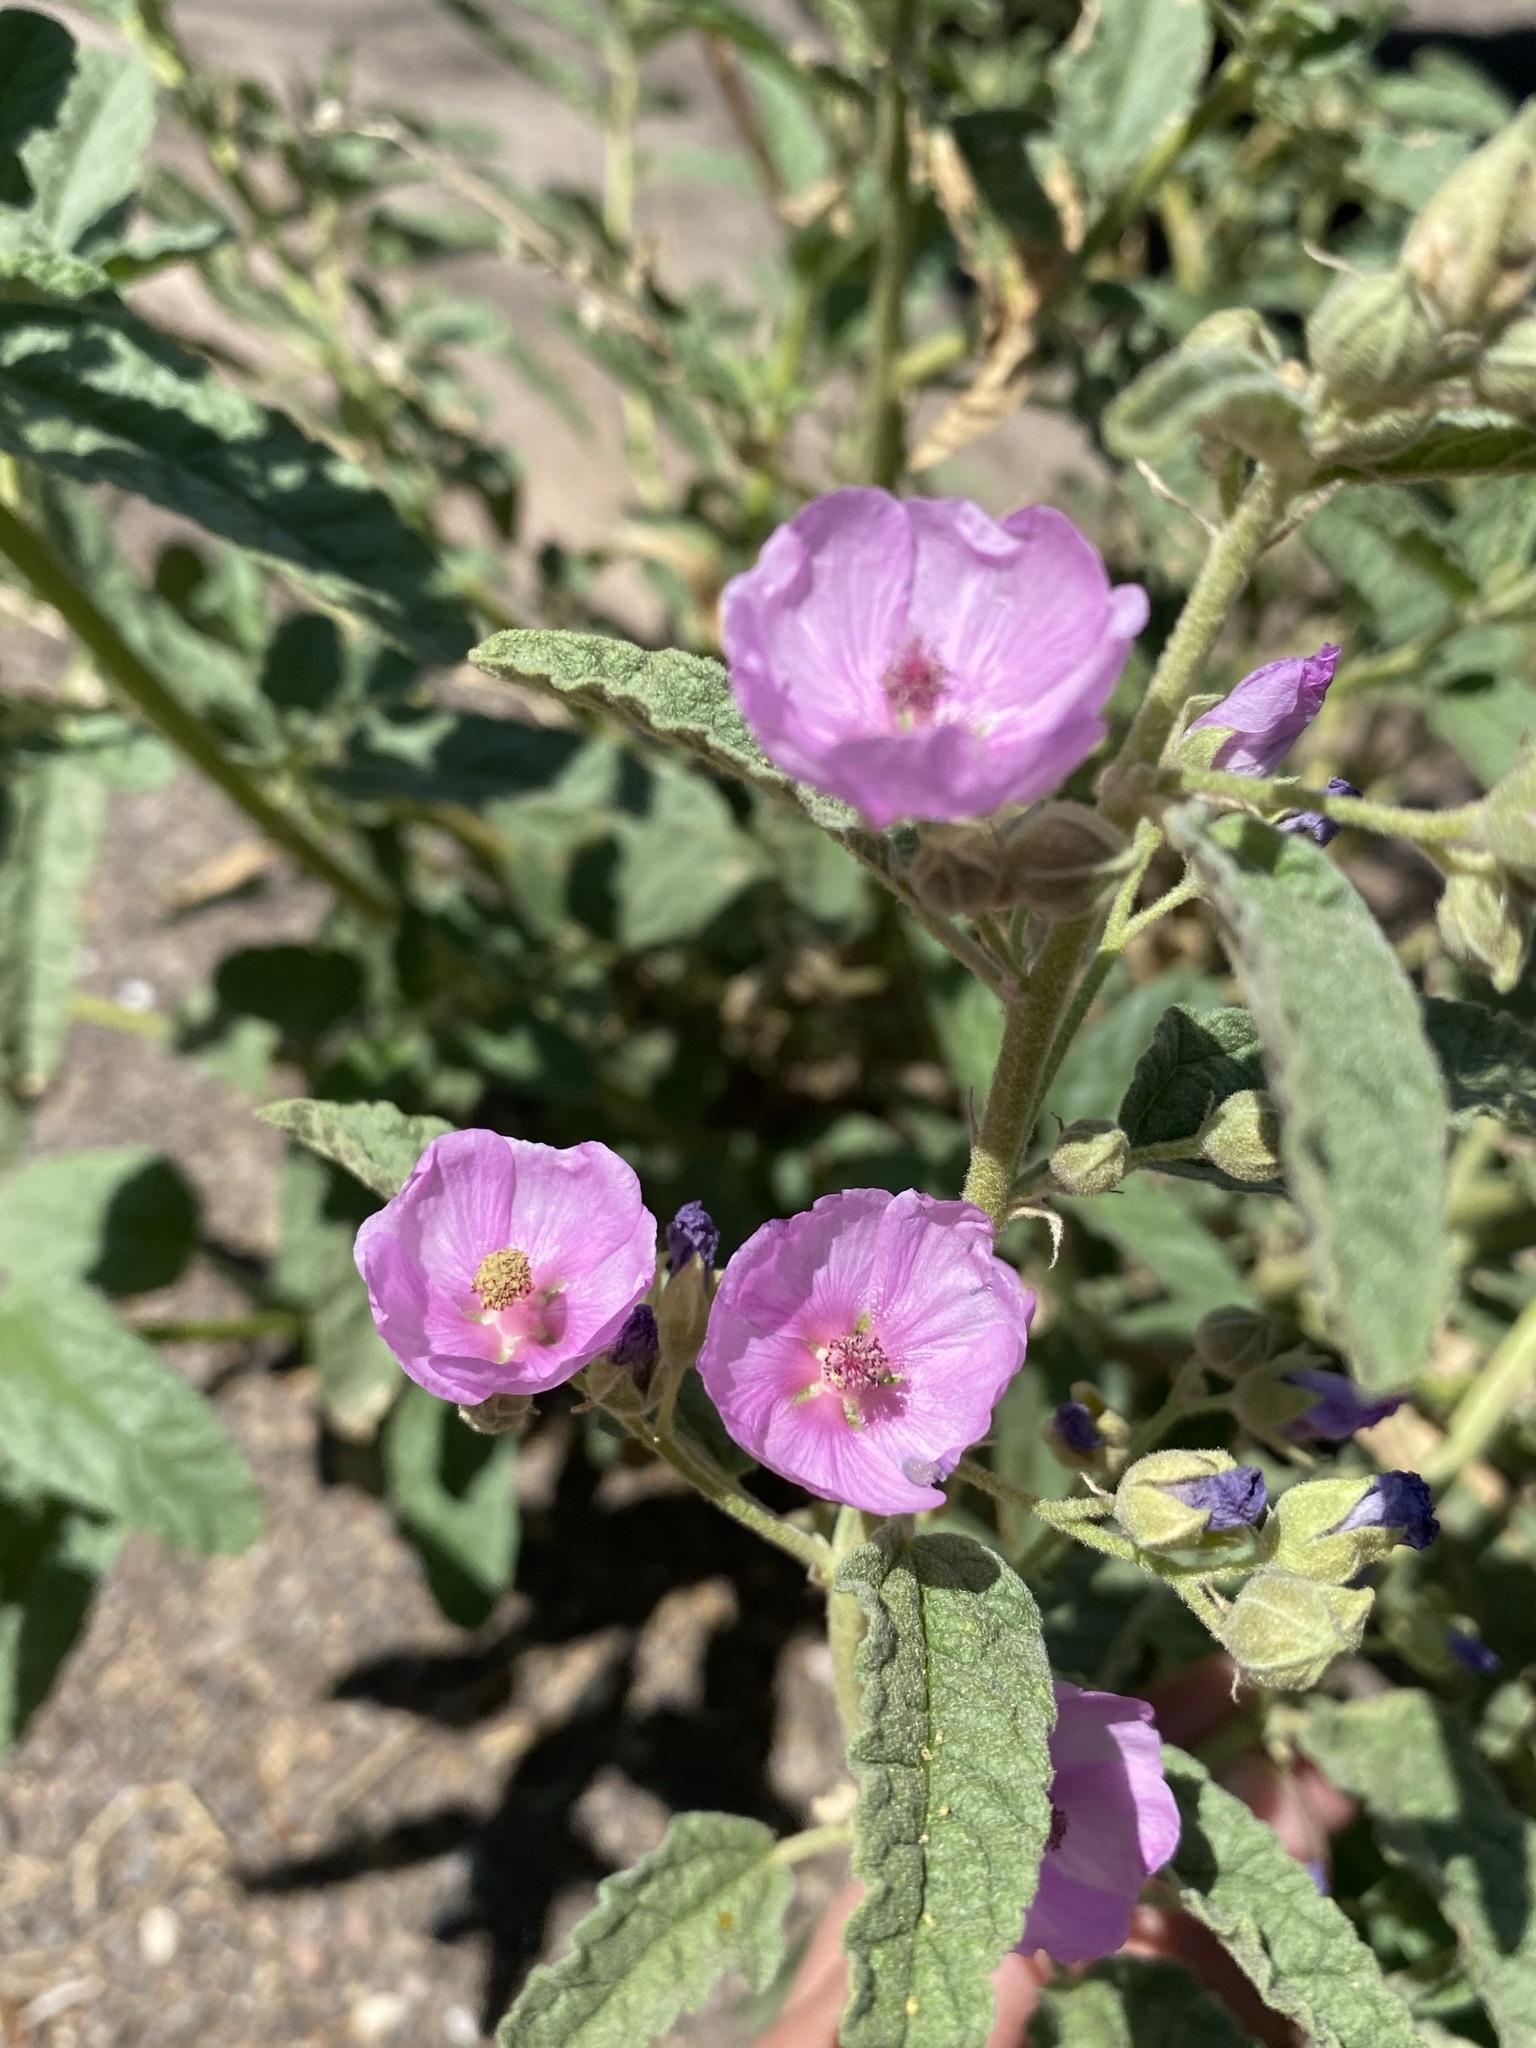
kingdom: Plantae
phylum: Tracheophyta
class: Magnoliopsida
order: Malvales
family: Malvaceae
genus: Sphaeralcea
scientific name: Sphaeralcea angustifolia
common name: Copper globe-mallow
